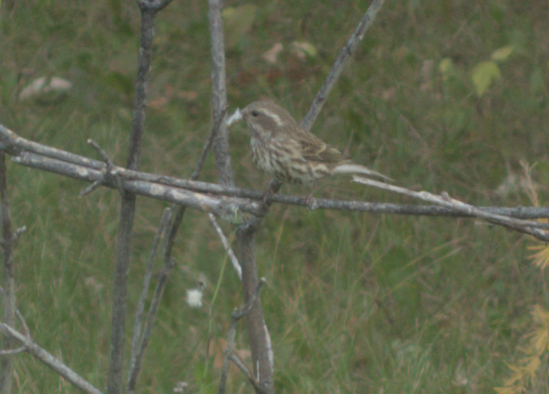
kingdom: Animalia
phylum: Chordata
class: Aves
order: Passeriformes
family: Fringillidae
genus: Haemorhous
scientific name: Haemorhous purpureus
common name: Purple finch
